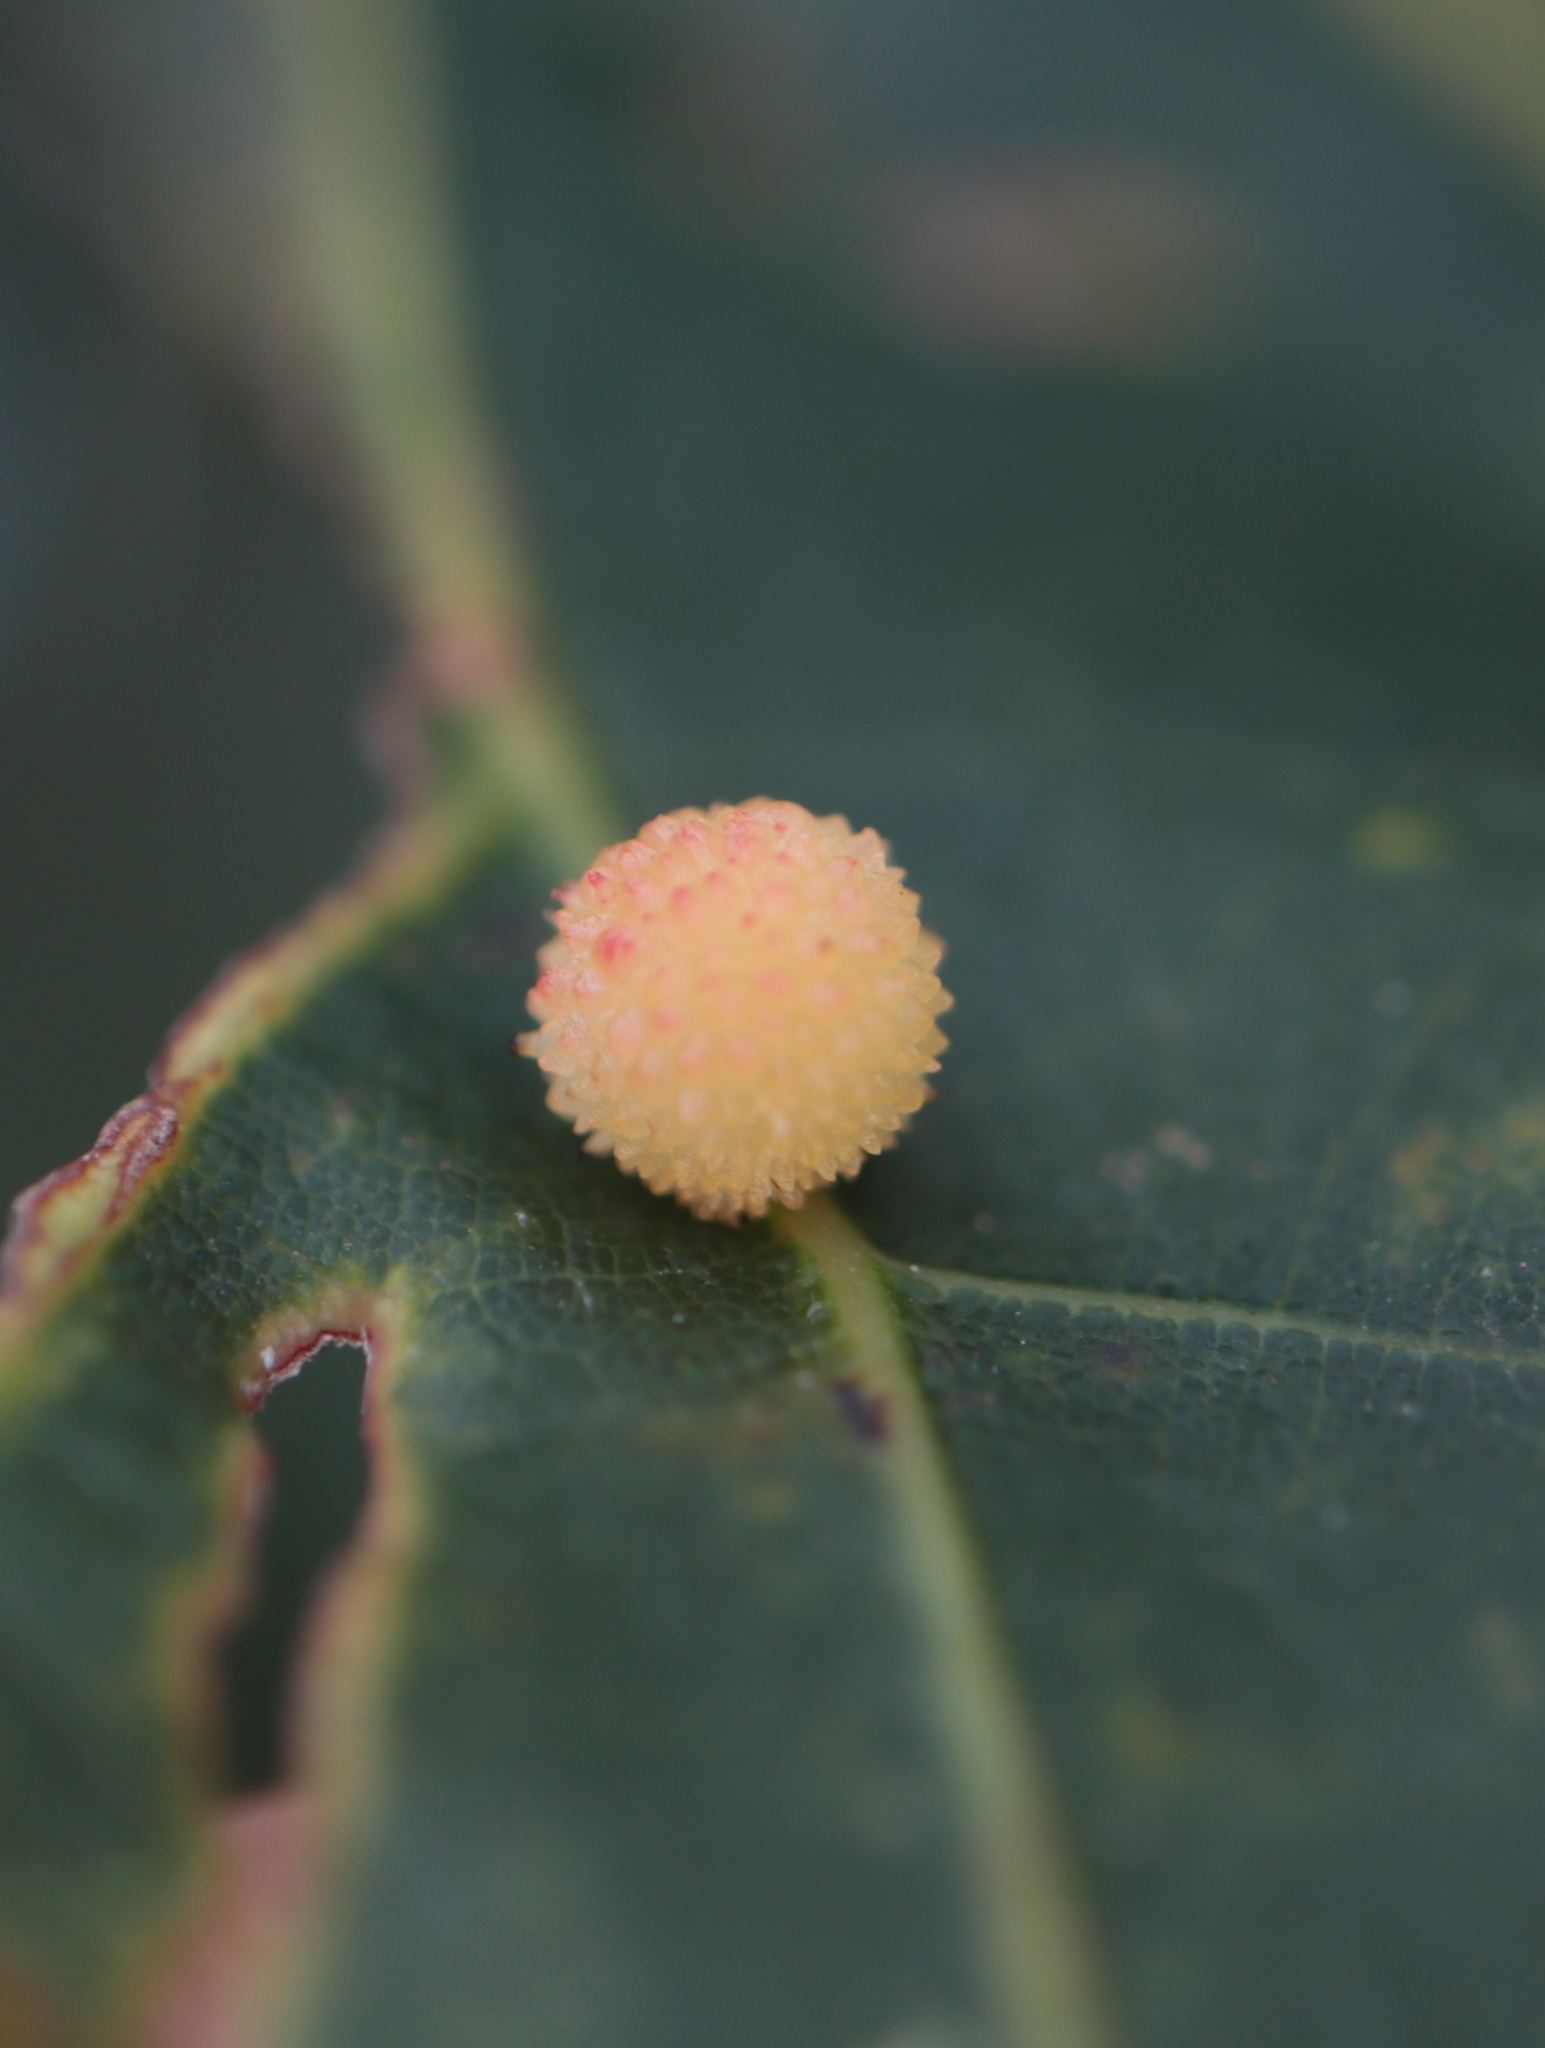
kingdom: Animalia
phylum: Arthropoda
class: Insecta
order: Hymenoptera
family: Cynipidae
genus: Acraspis
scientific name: Acraspis
